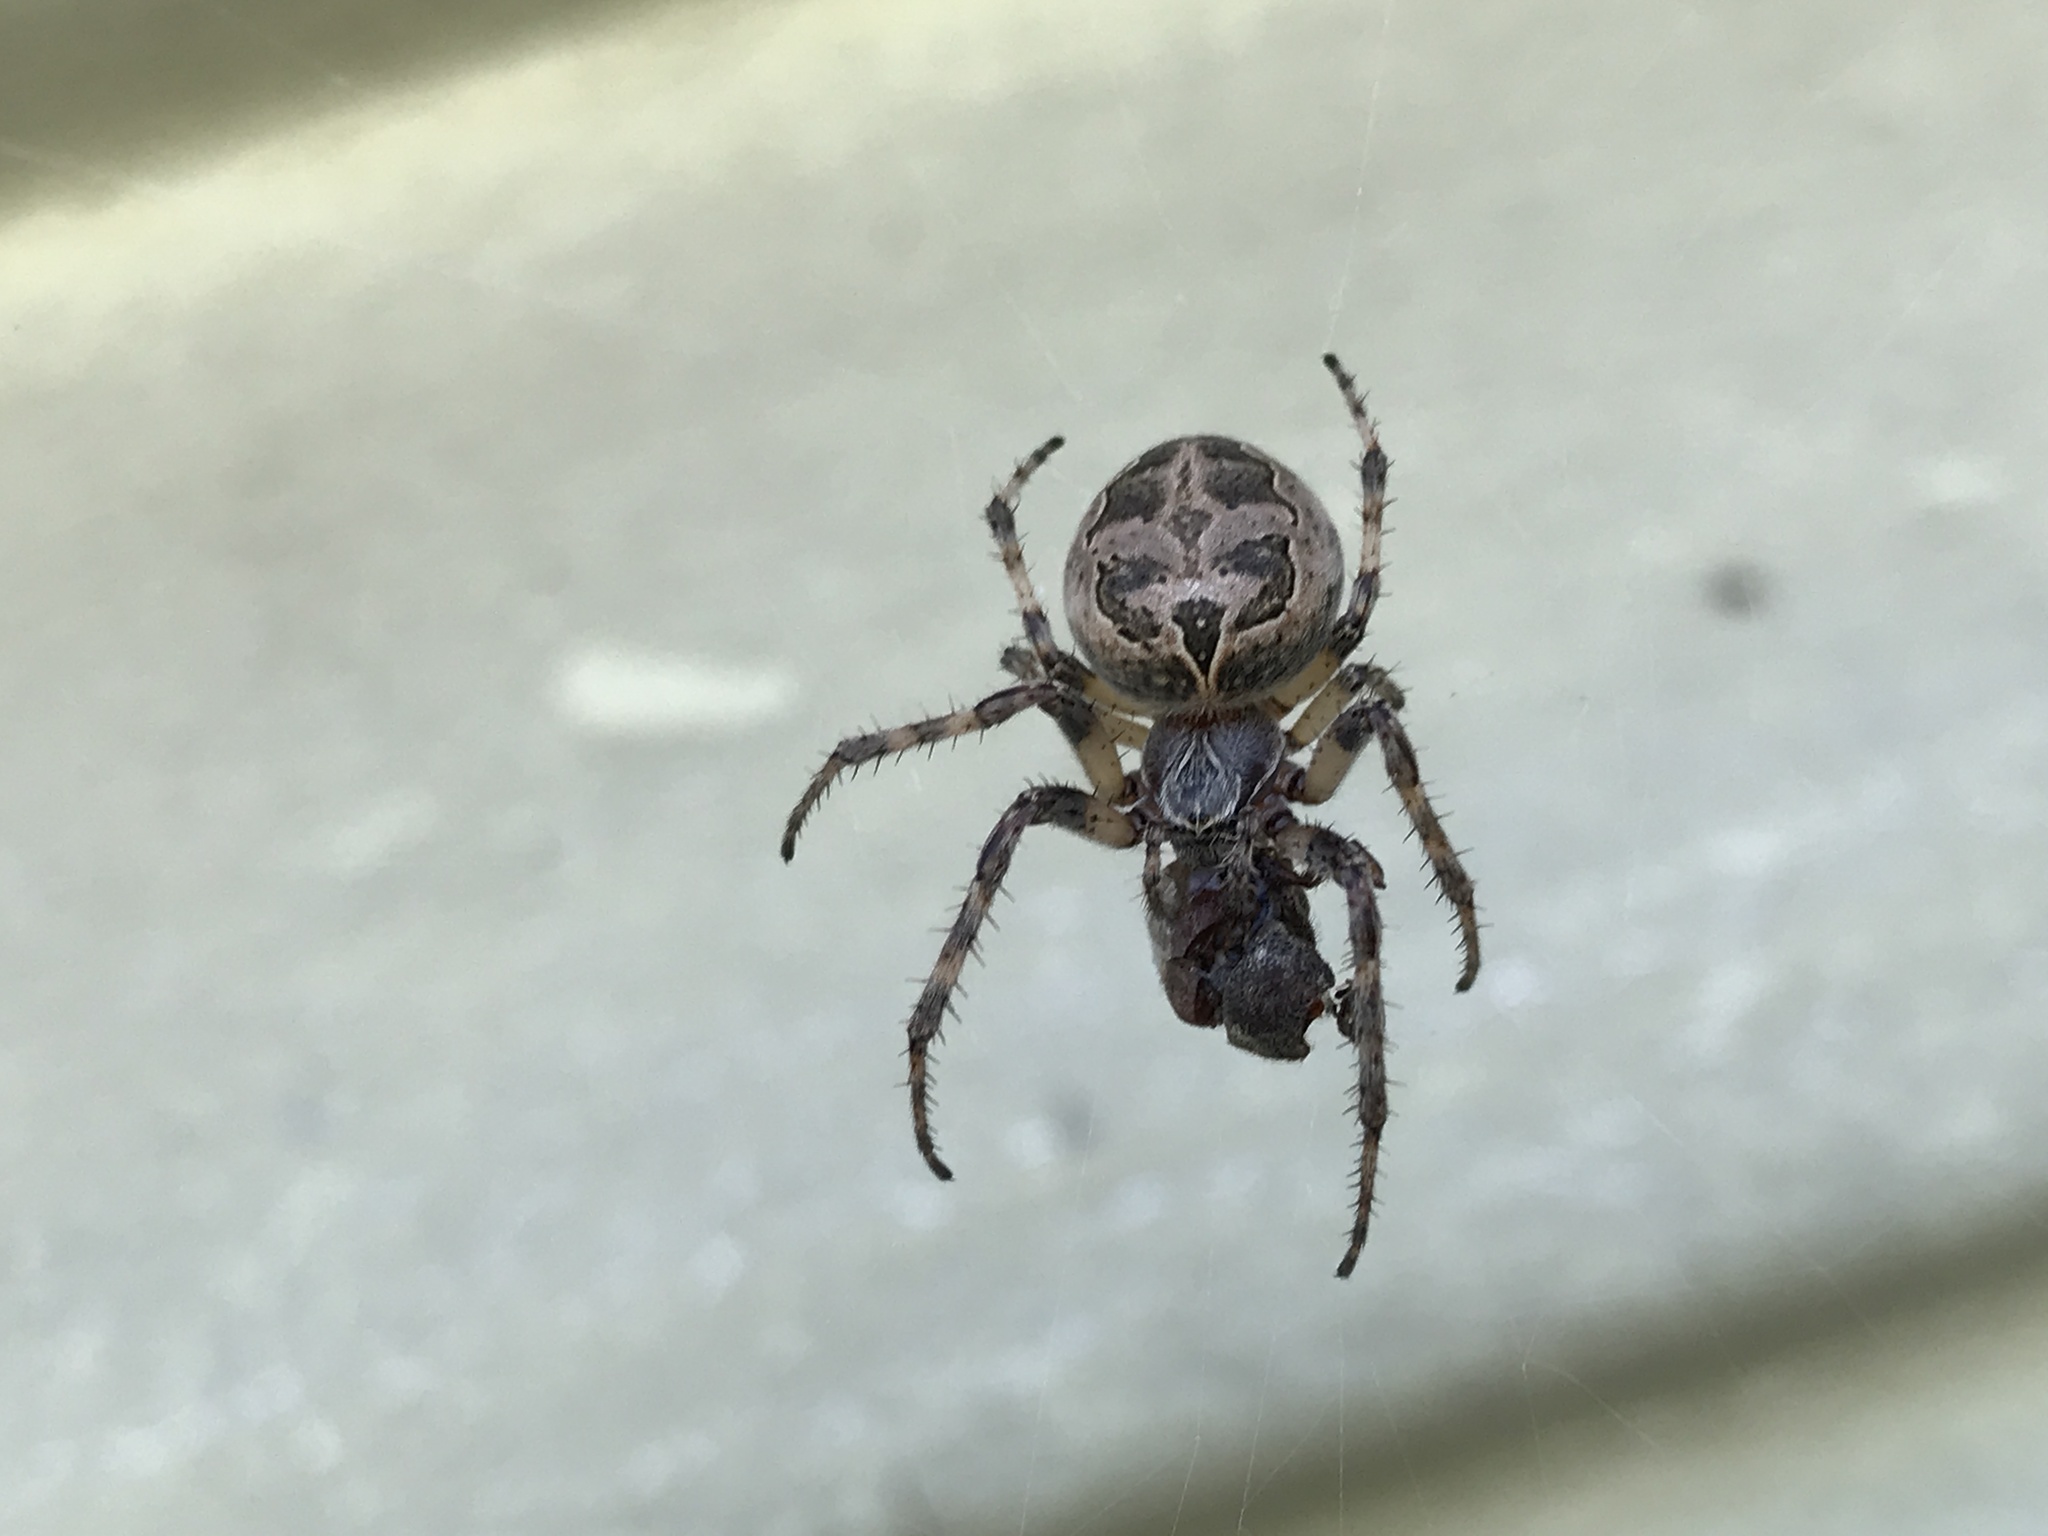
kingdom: Animalia
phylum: Arthropoda
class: Arachnida
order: Araneae
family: Araneidae
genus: Larinioides
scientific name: Larinioides sclopetarius
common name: Bridge orbweaver
